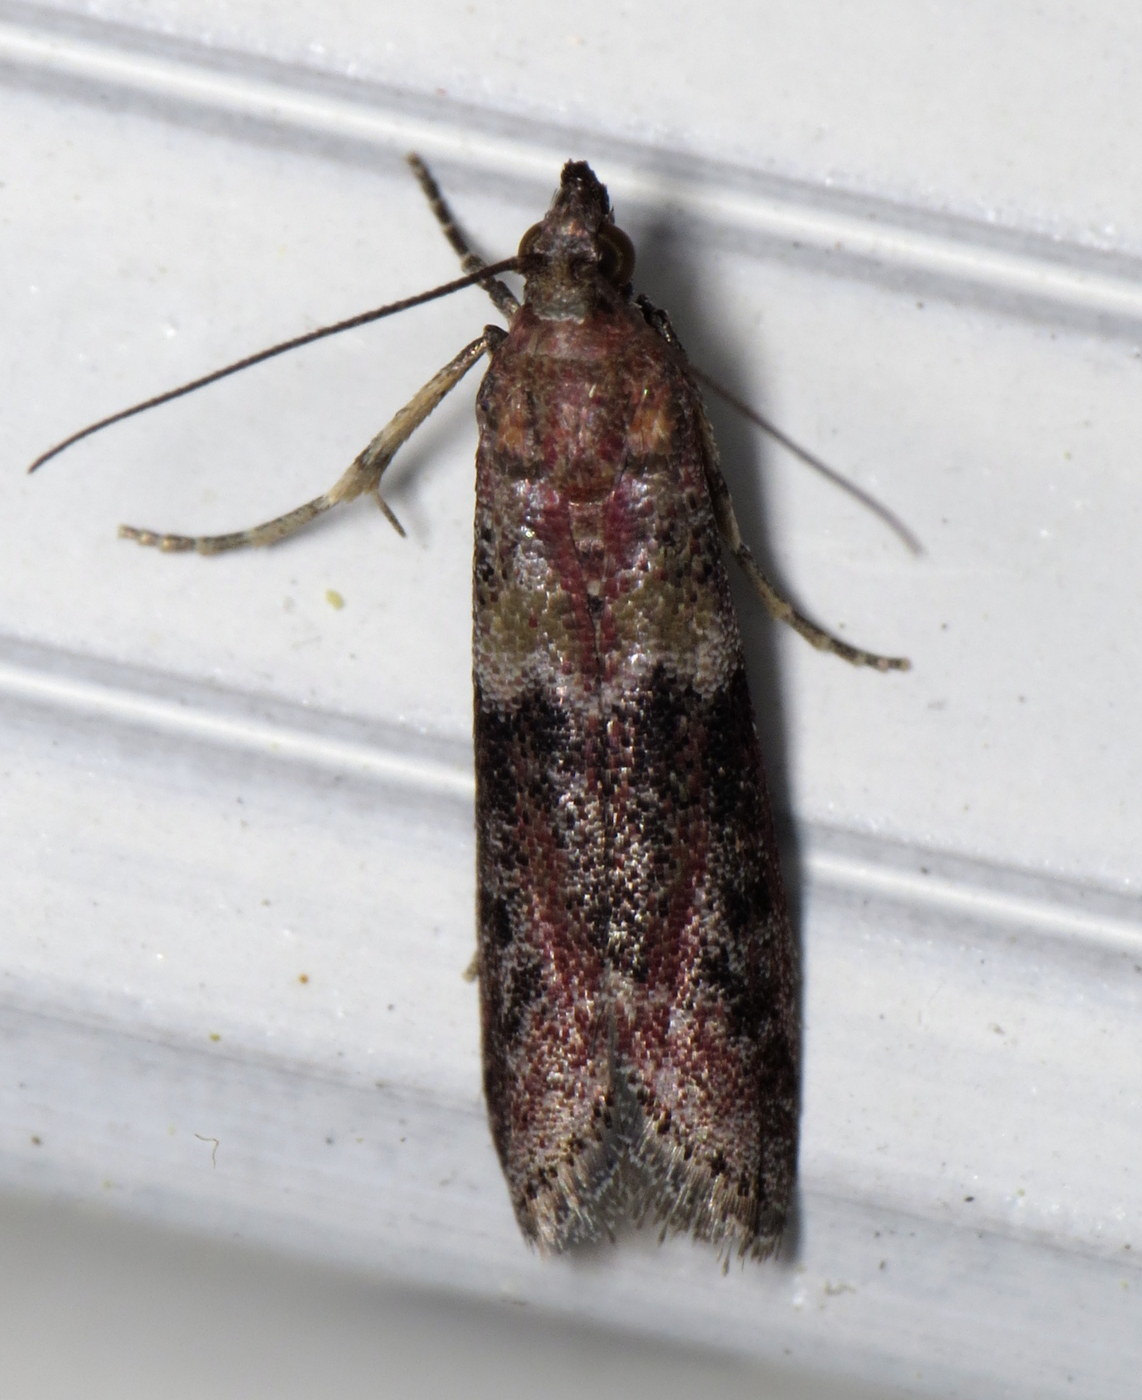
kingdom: Animalia
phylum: Arthropoda
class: Insecta
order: Lepidoptera
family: Pyralidae
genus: Ephestiodes
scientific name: Ephestiodes infimella
